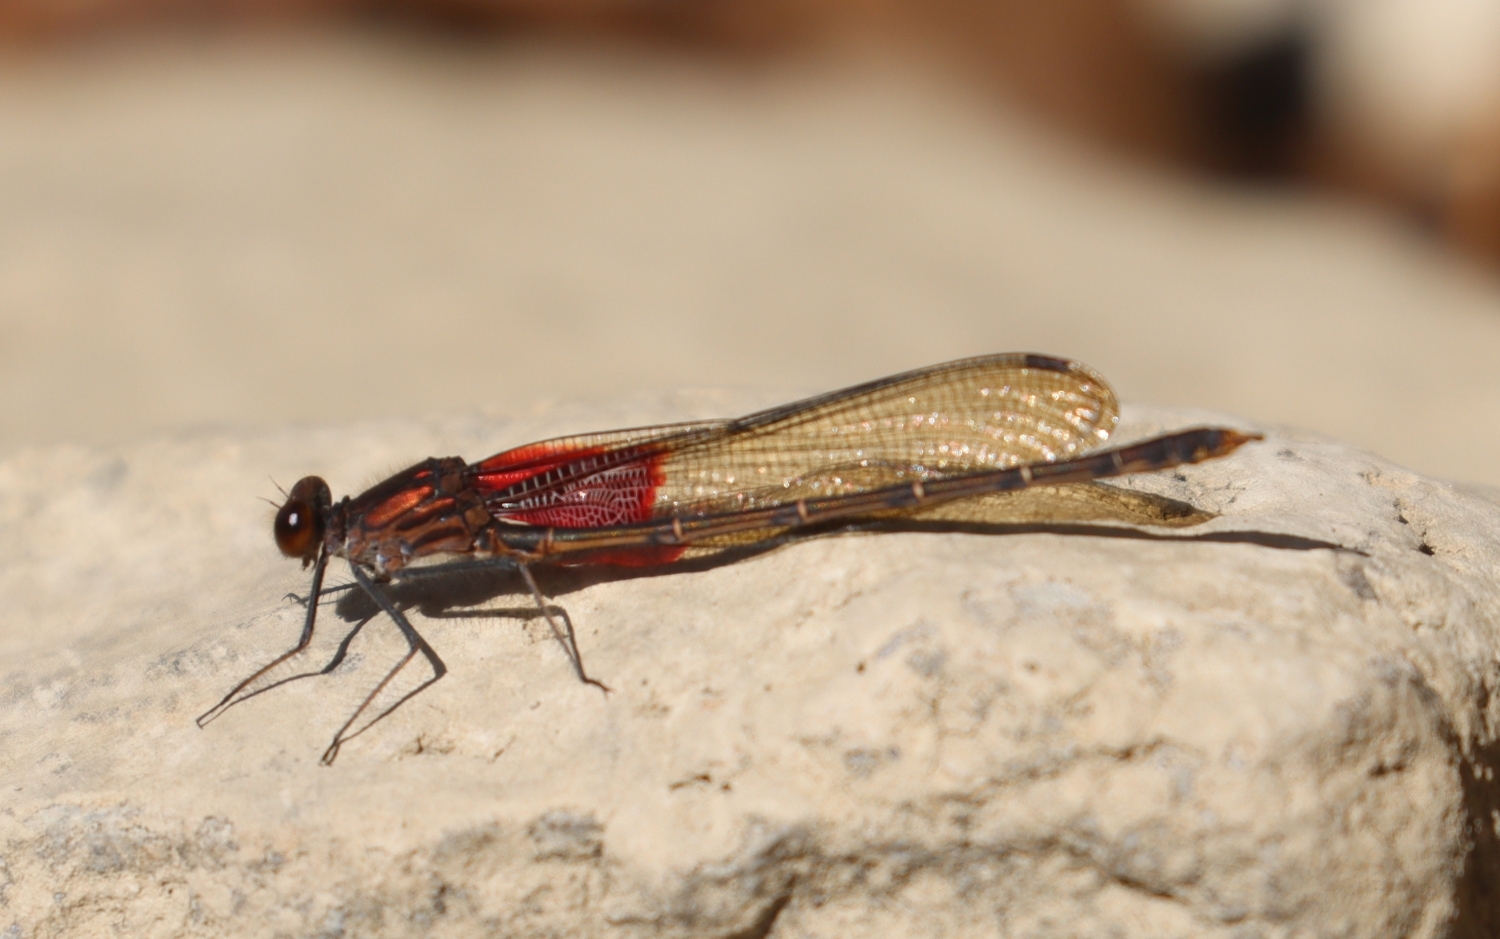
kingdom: Animalia
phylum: Arthropoda
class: Insecta
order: Odonata
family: Calopterygidae
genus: Hetaerina
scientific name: Hetaerina americana
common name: American rubyspot
